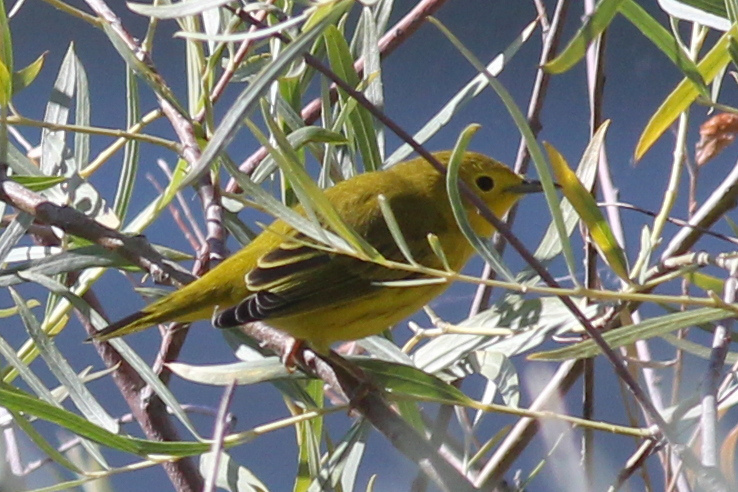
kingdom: Animalia
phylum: Chordata
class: Aves
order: Passeriformes
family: Parulidae
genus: Setophaga
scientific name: Setophaga petechia
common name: Yellow warbler
